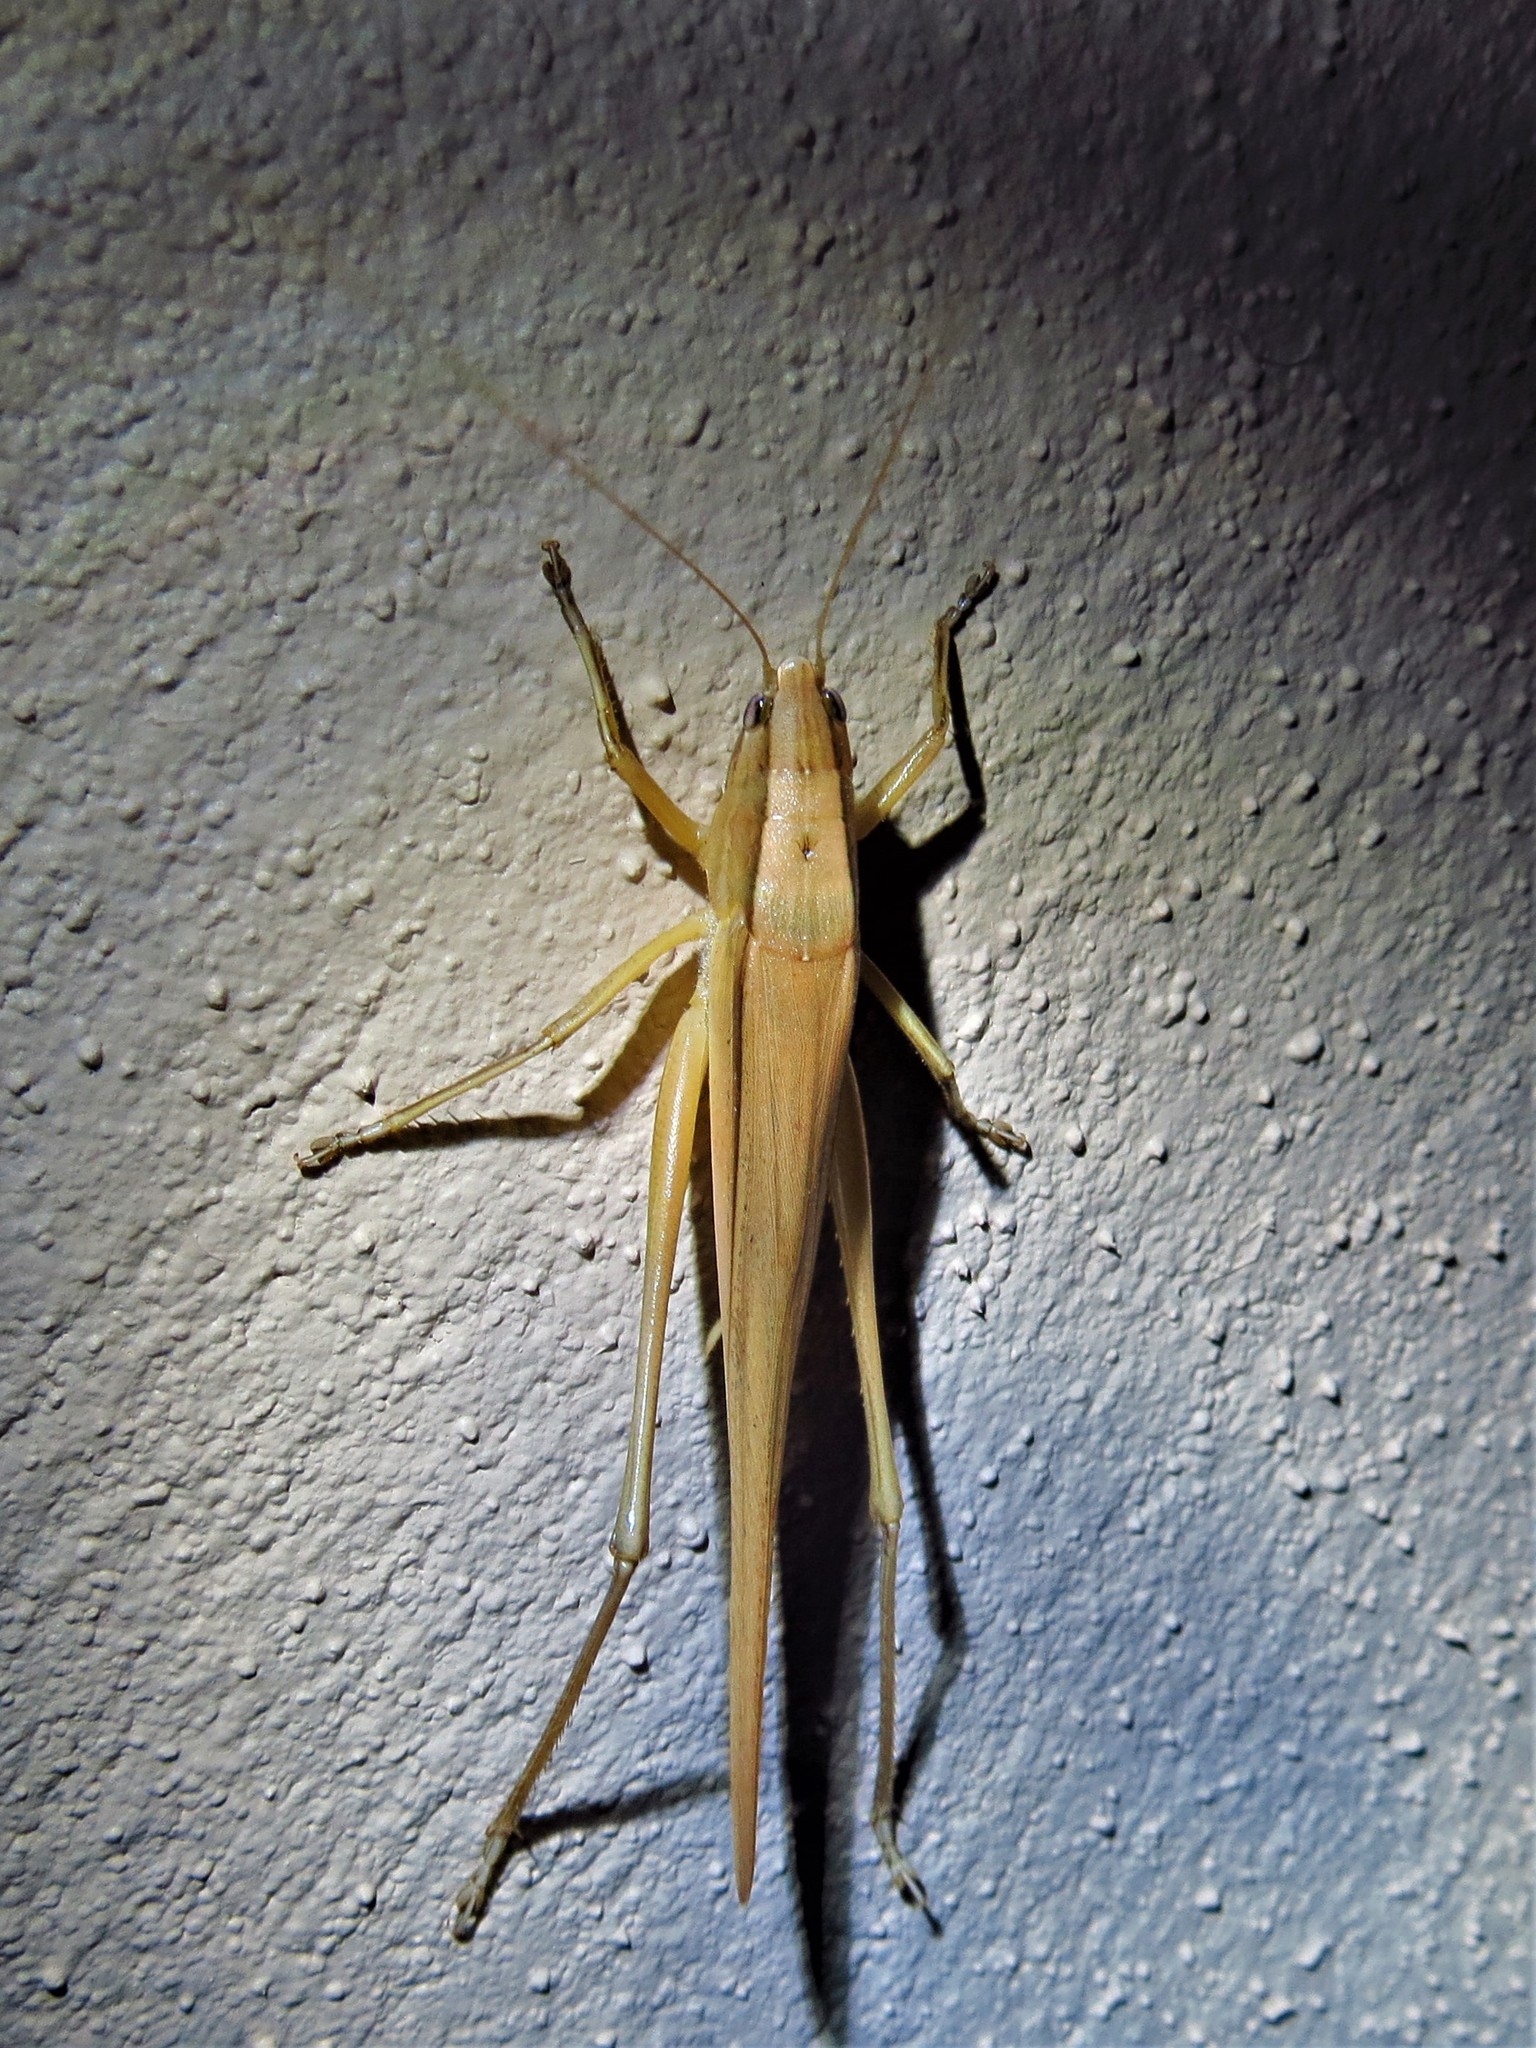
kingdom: Animalia
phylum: Arthropoda
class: Insecta
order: Orthoptera
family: Tettigoniidae
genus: Neoconocephalus
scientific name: Neoconocephalus triops
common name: Broad-tipped conehead
